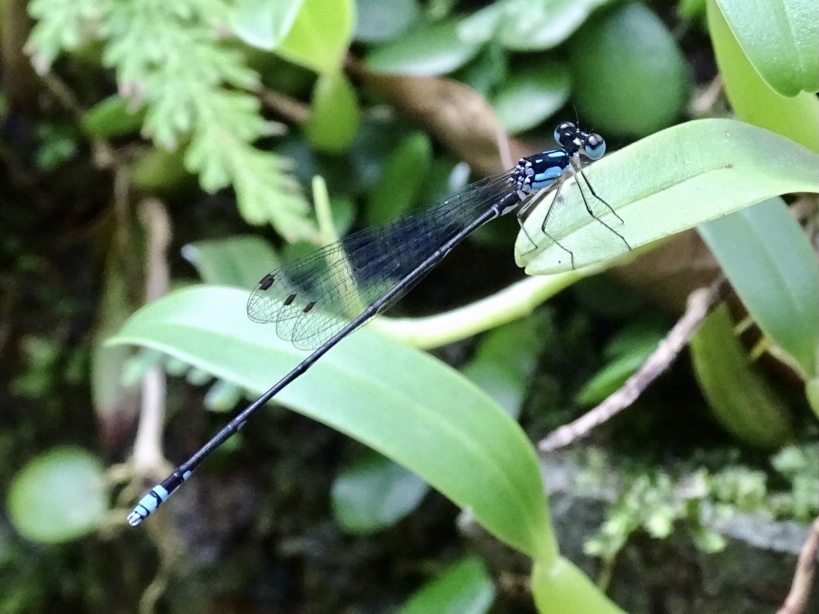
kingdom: Animalia
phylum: Arthropoda
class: Insecta
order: Odonata
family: Platycnemididae
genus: Coeliccia
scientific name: Coeliccia cyanomelas
